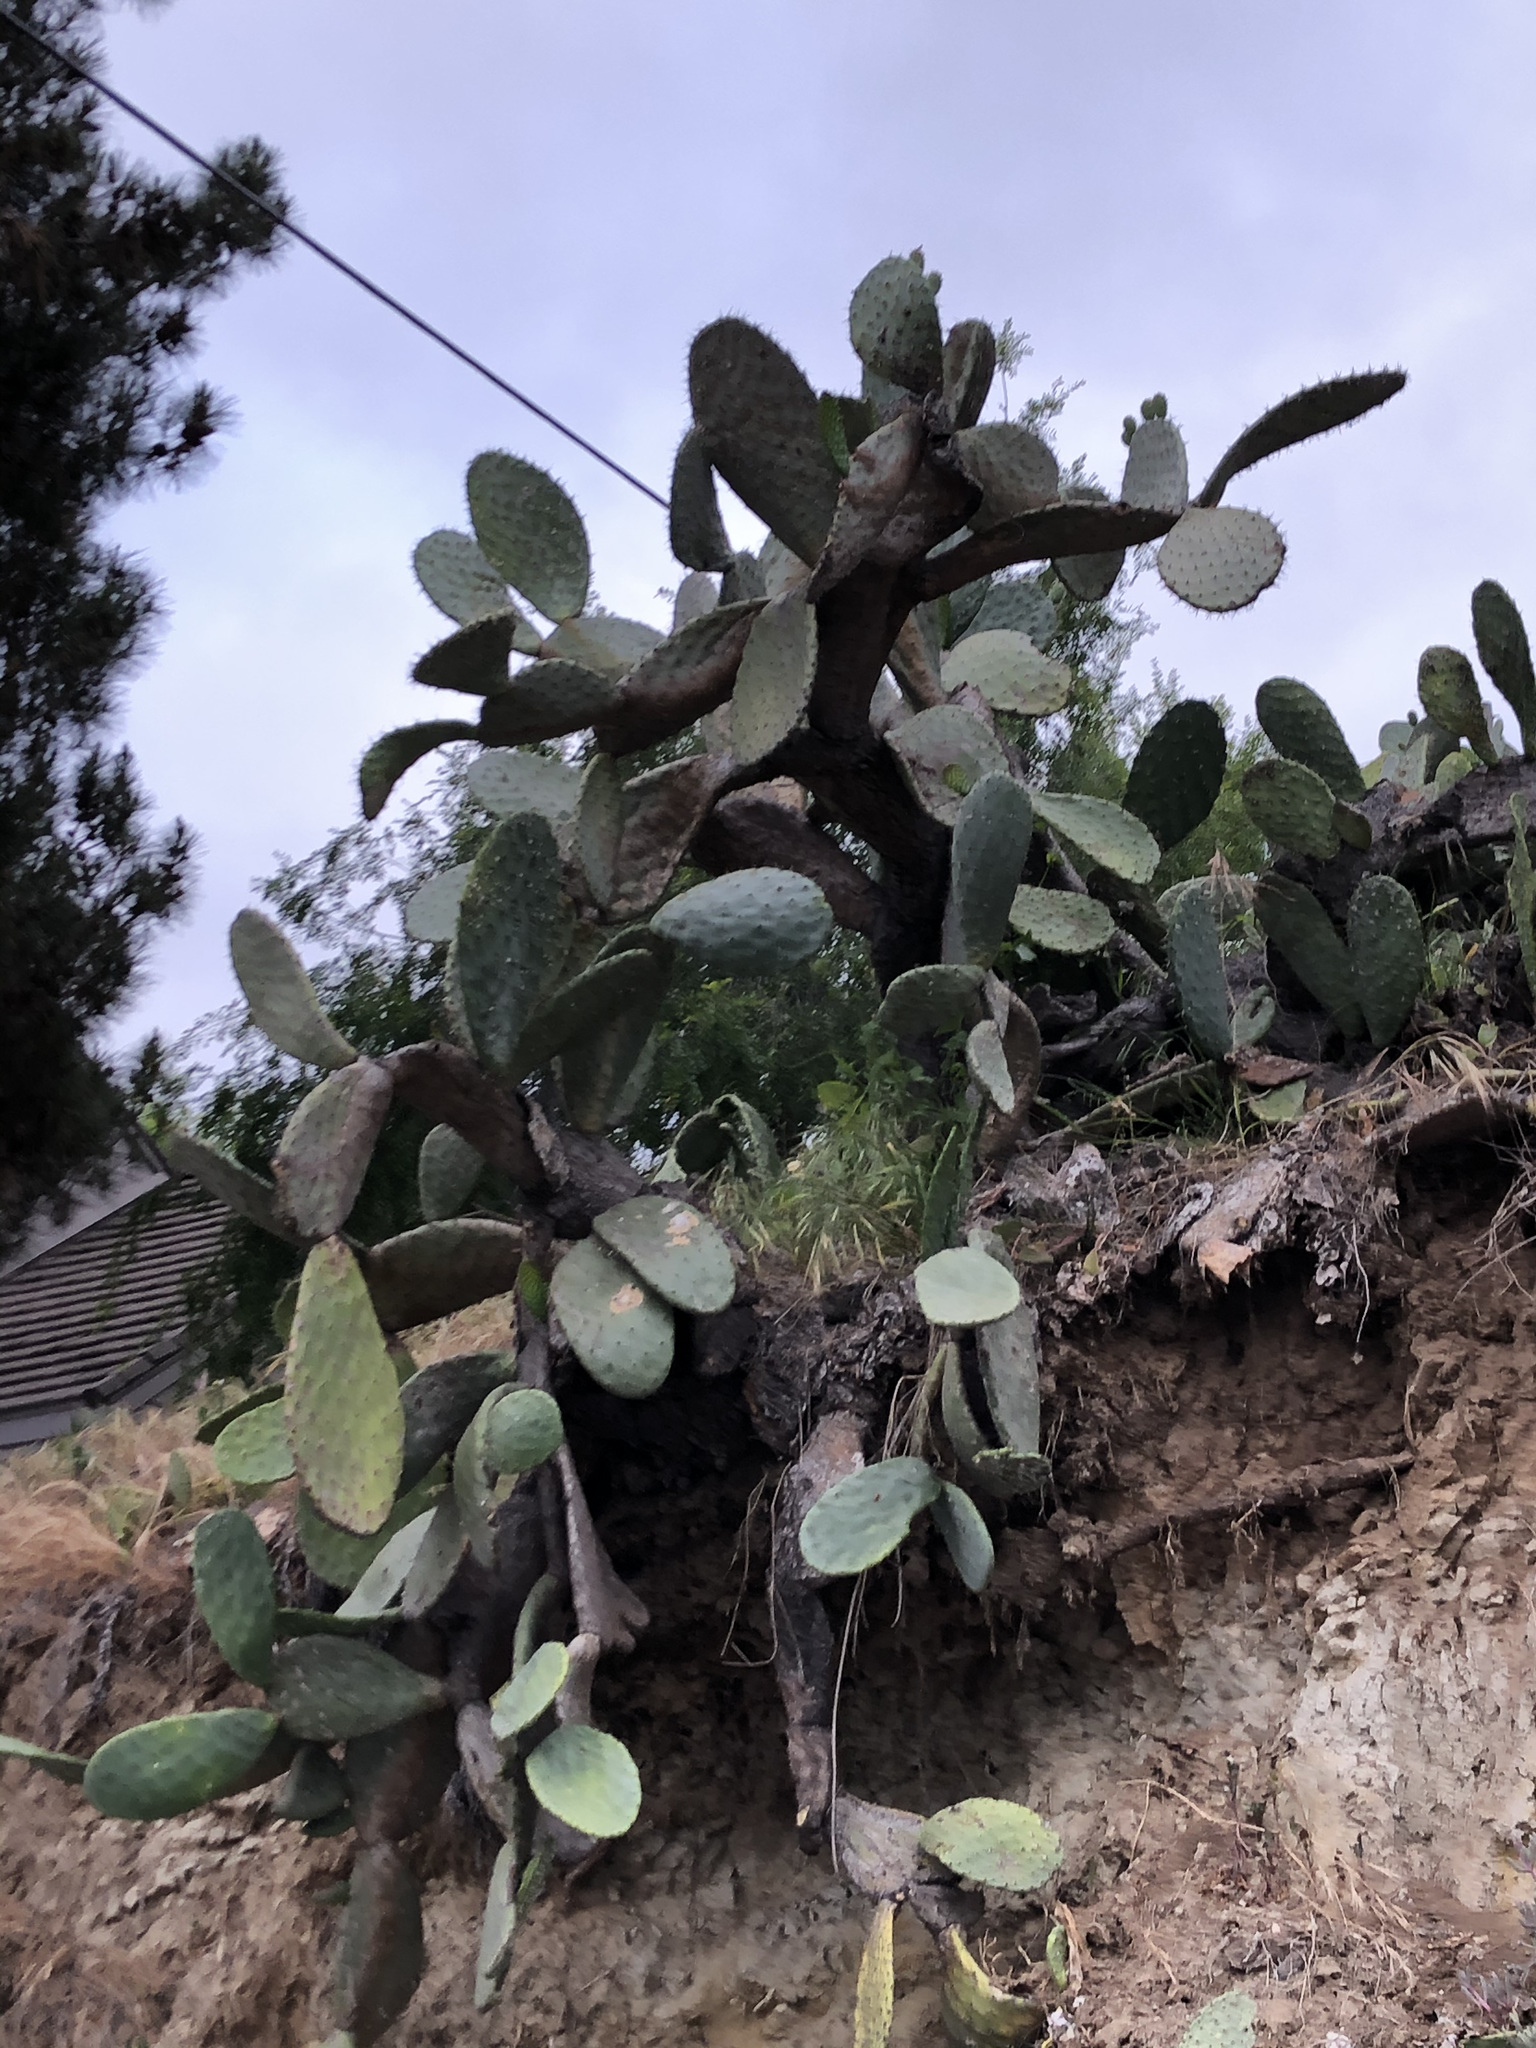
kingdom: Plantae
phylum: Tracheophyta
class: Magnoliopsida
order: Caryophyllales
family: Cactaceae
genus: Opuntia
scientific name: Opuntia ficus-indica
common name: Barbary fig
